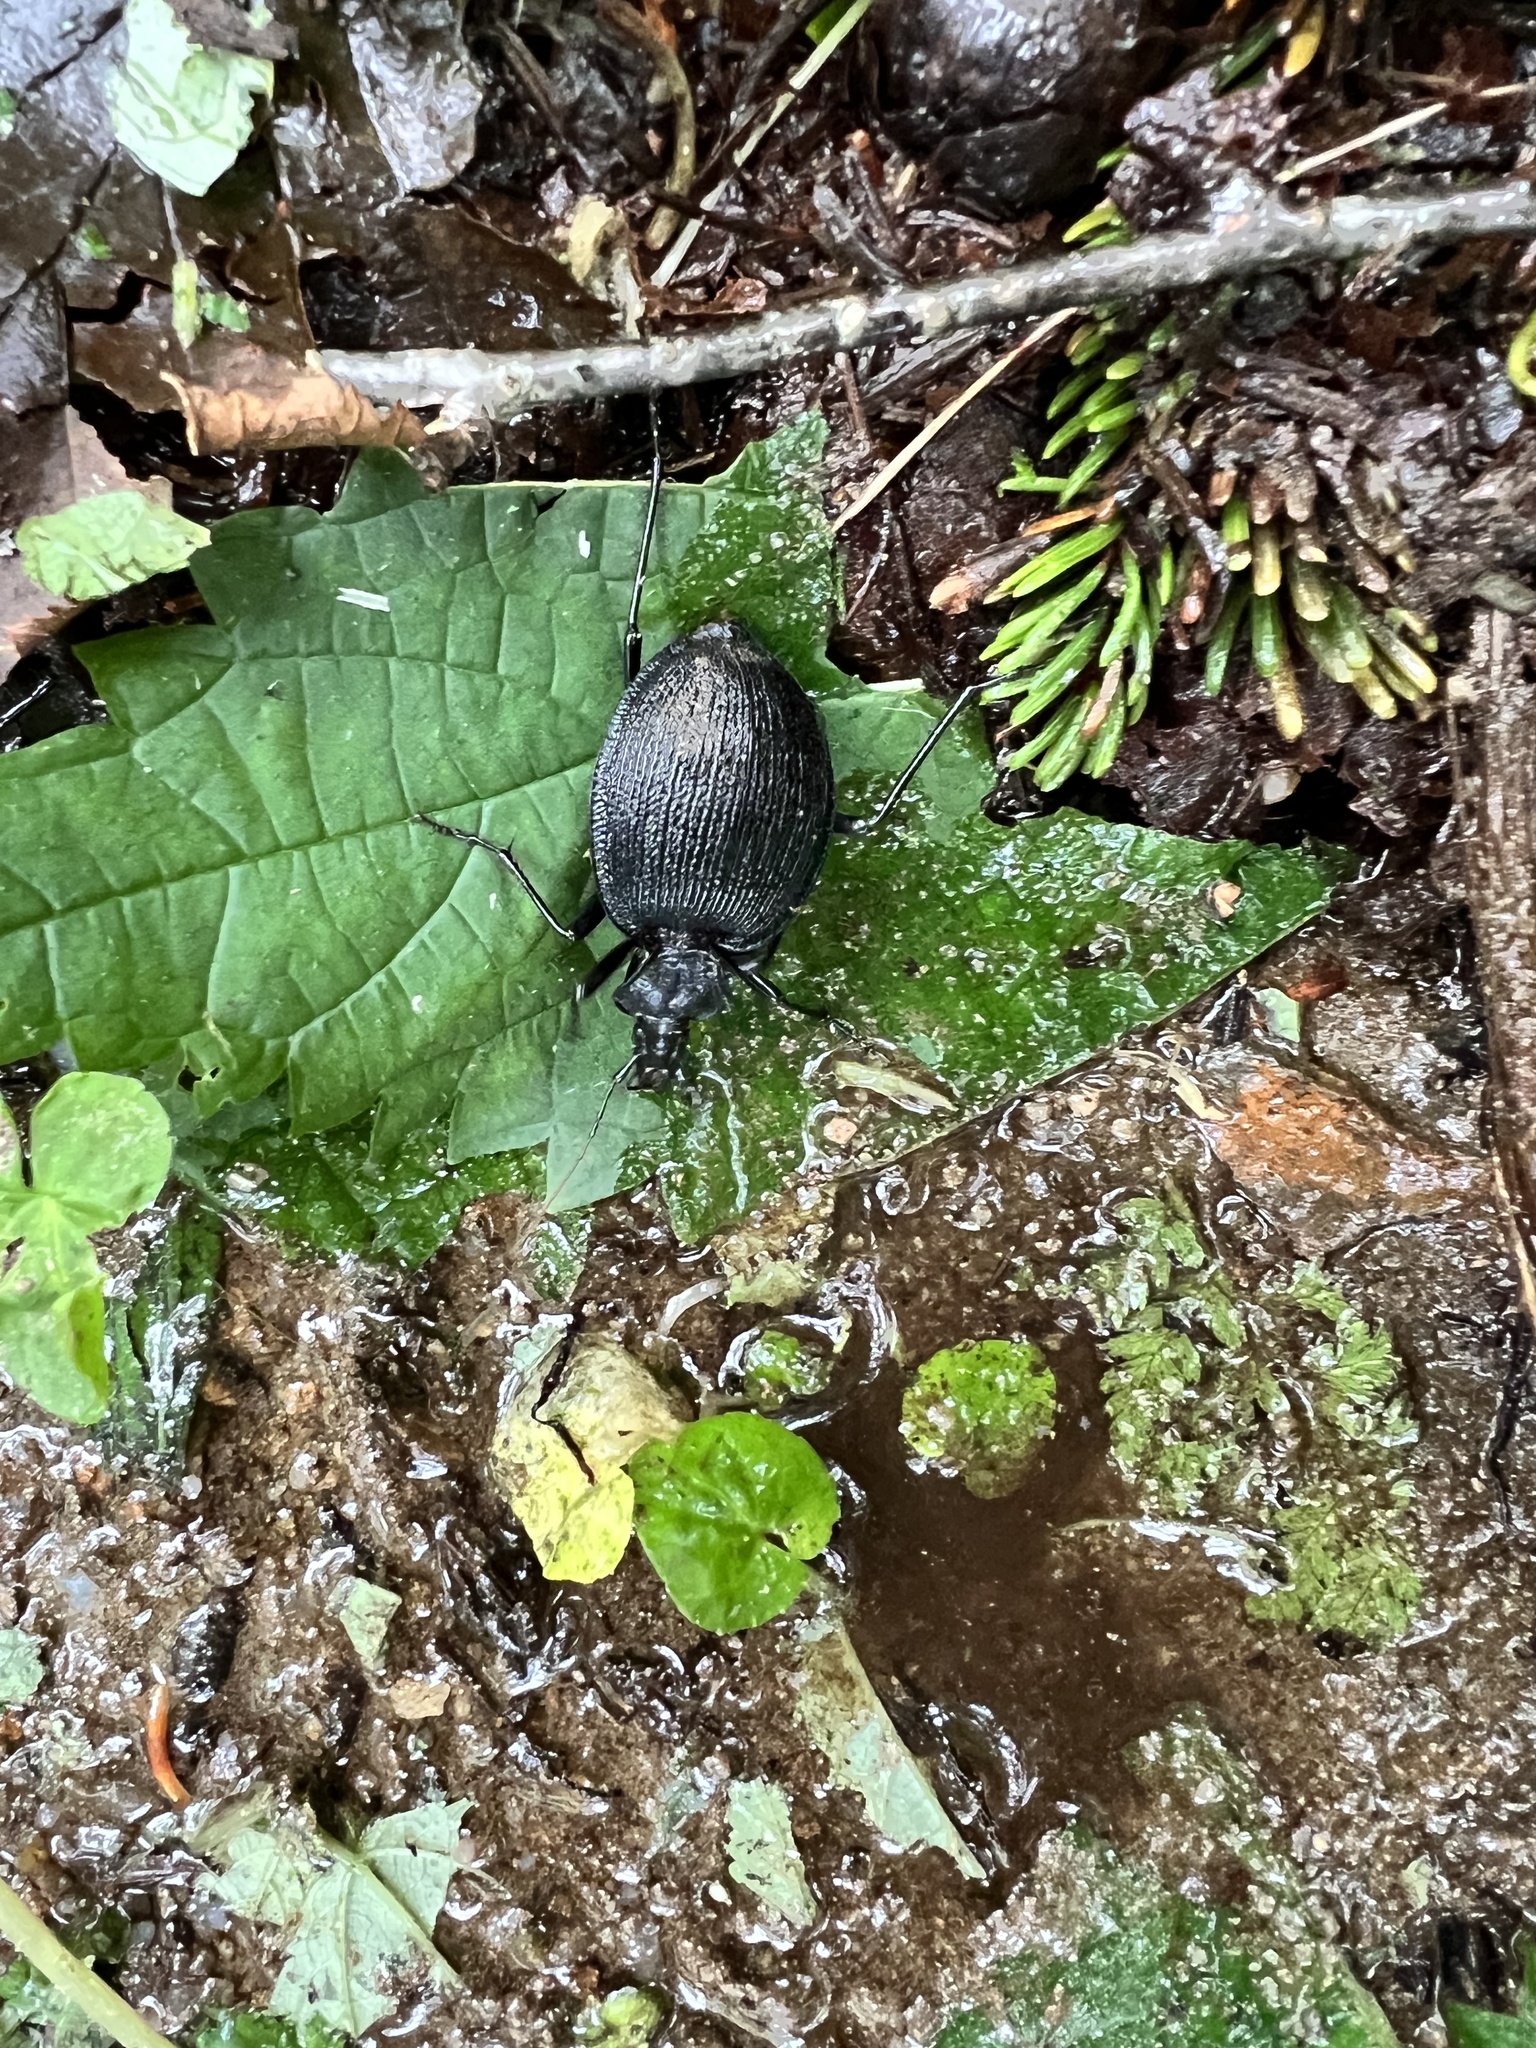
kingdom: Animalia
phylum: Arthropoda
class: Insecta
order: Coleoptera
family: Carabidae
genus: Scaphinotus
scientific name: Scaphinotus unicolor
